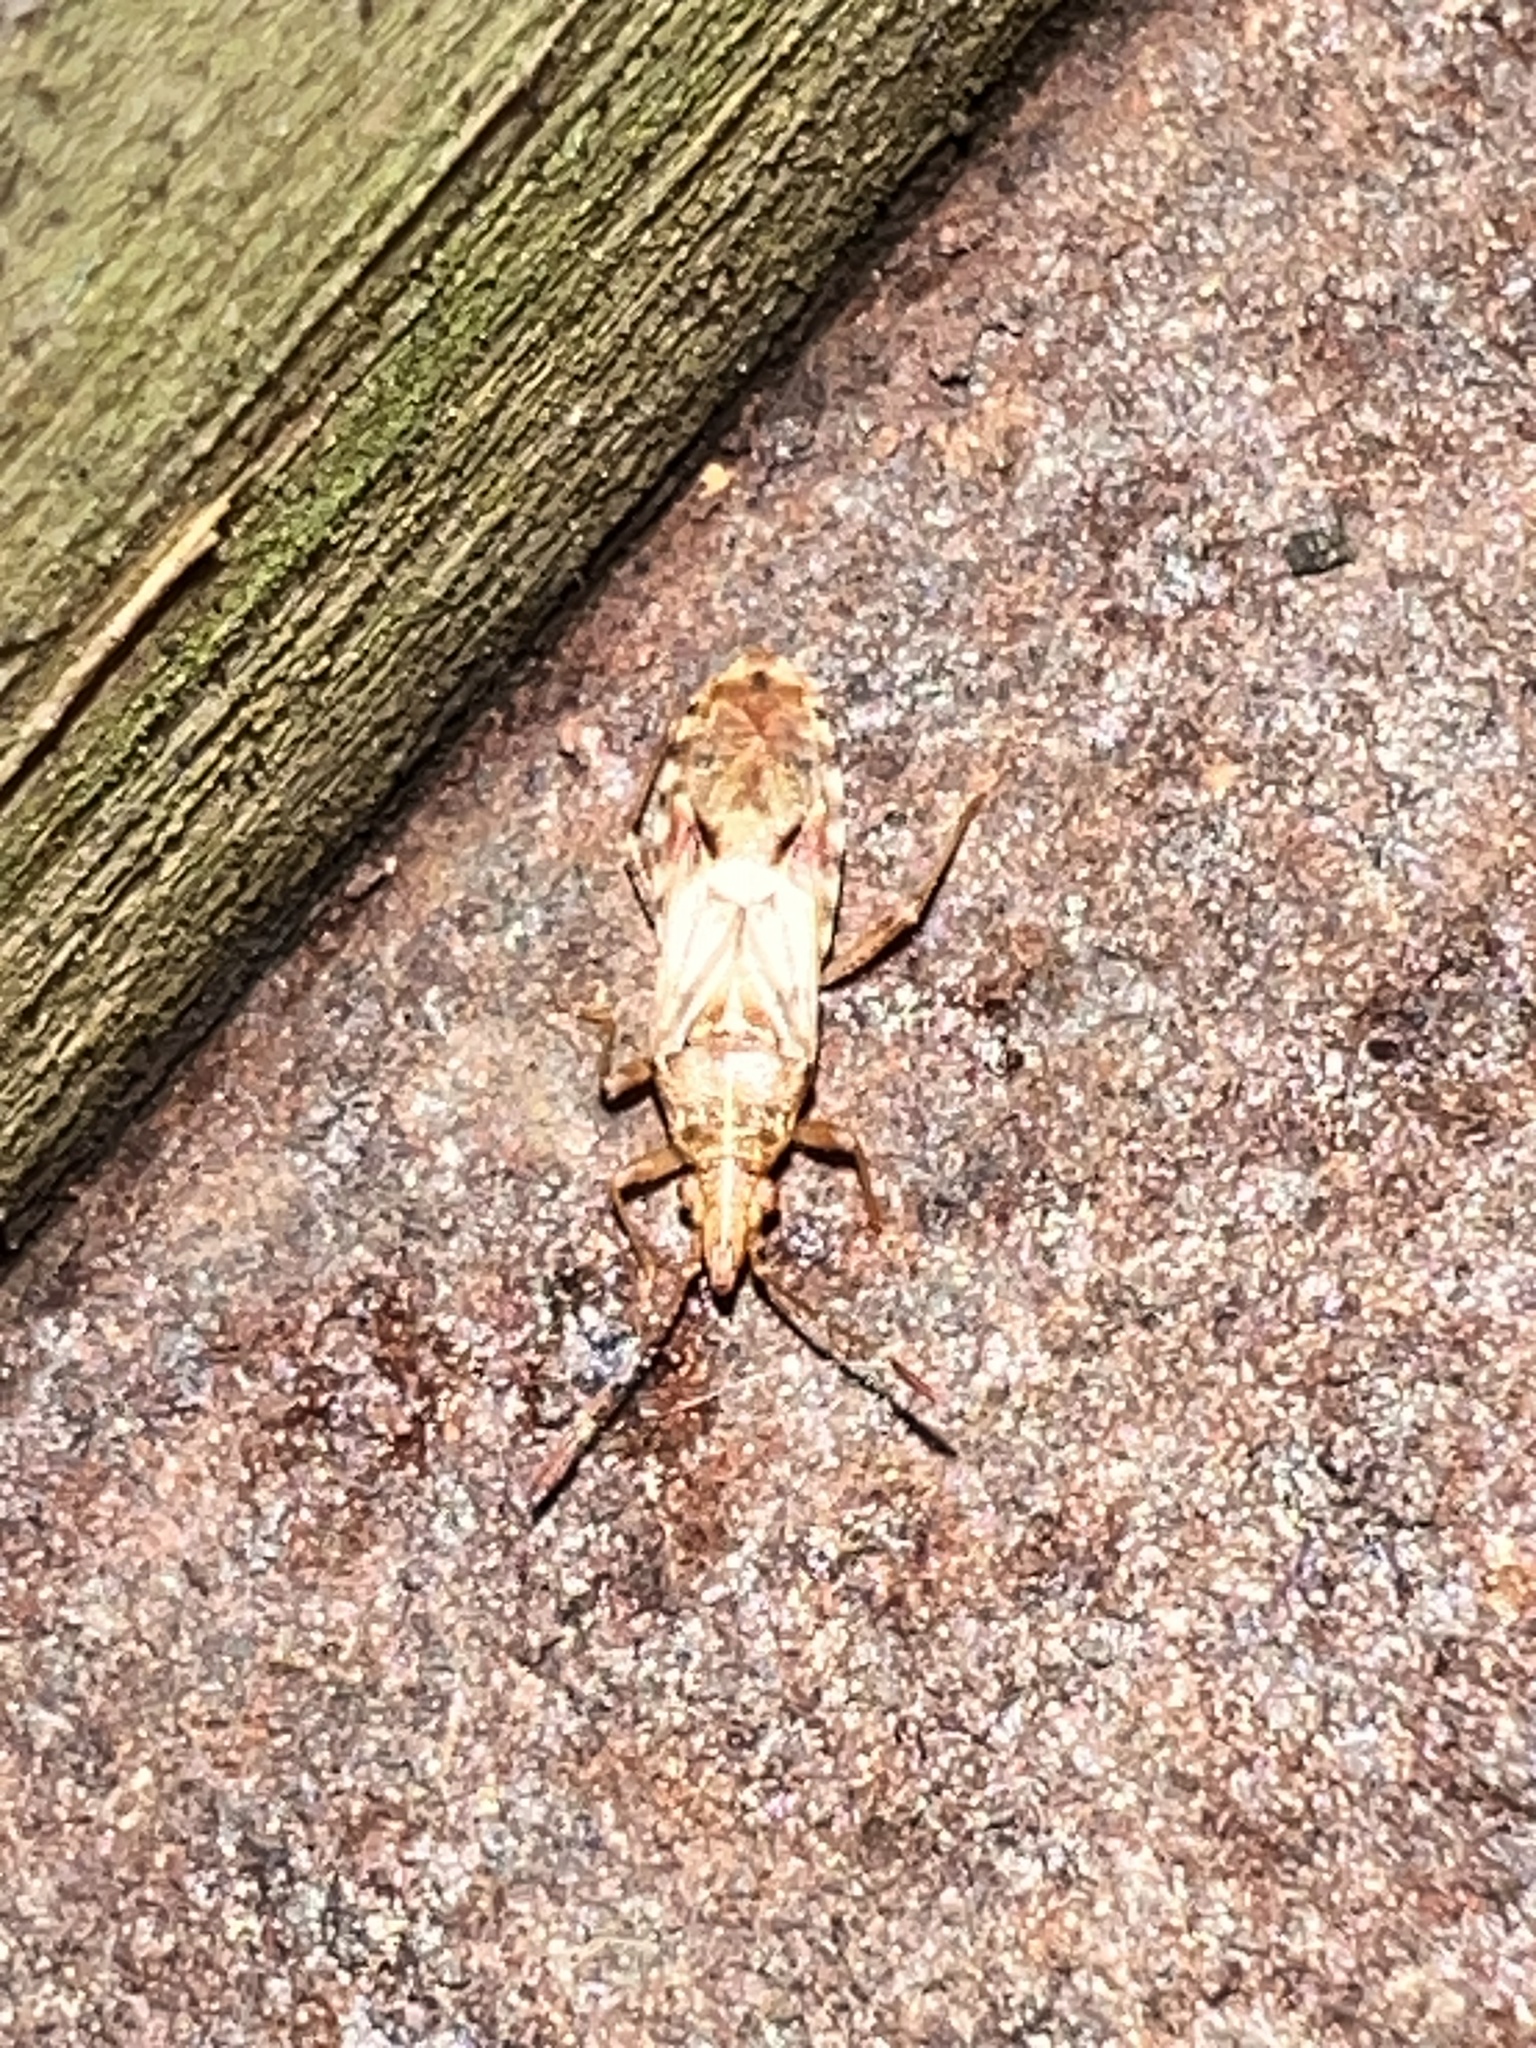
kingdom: Animalia
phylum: Arthropoda
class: Insecta
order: Hemiptera
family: Lygaeidae
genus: Belonochilus
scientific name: Belonochilus numenius
